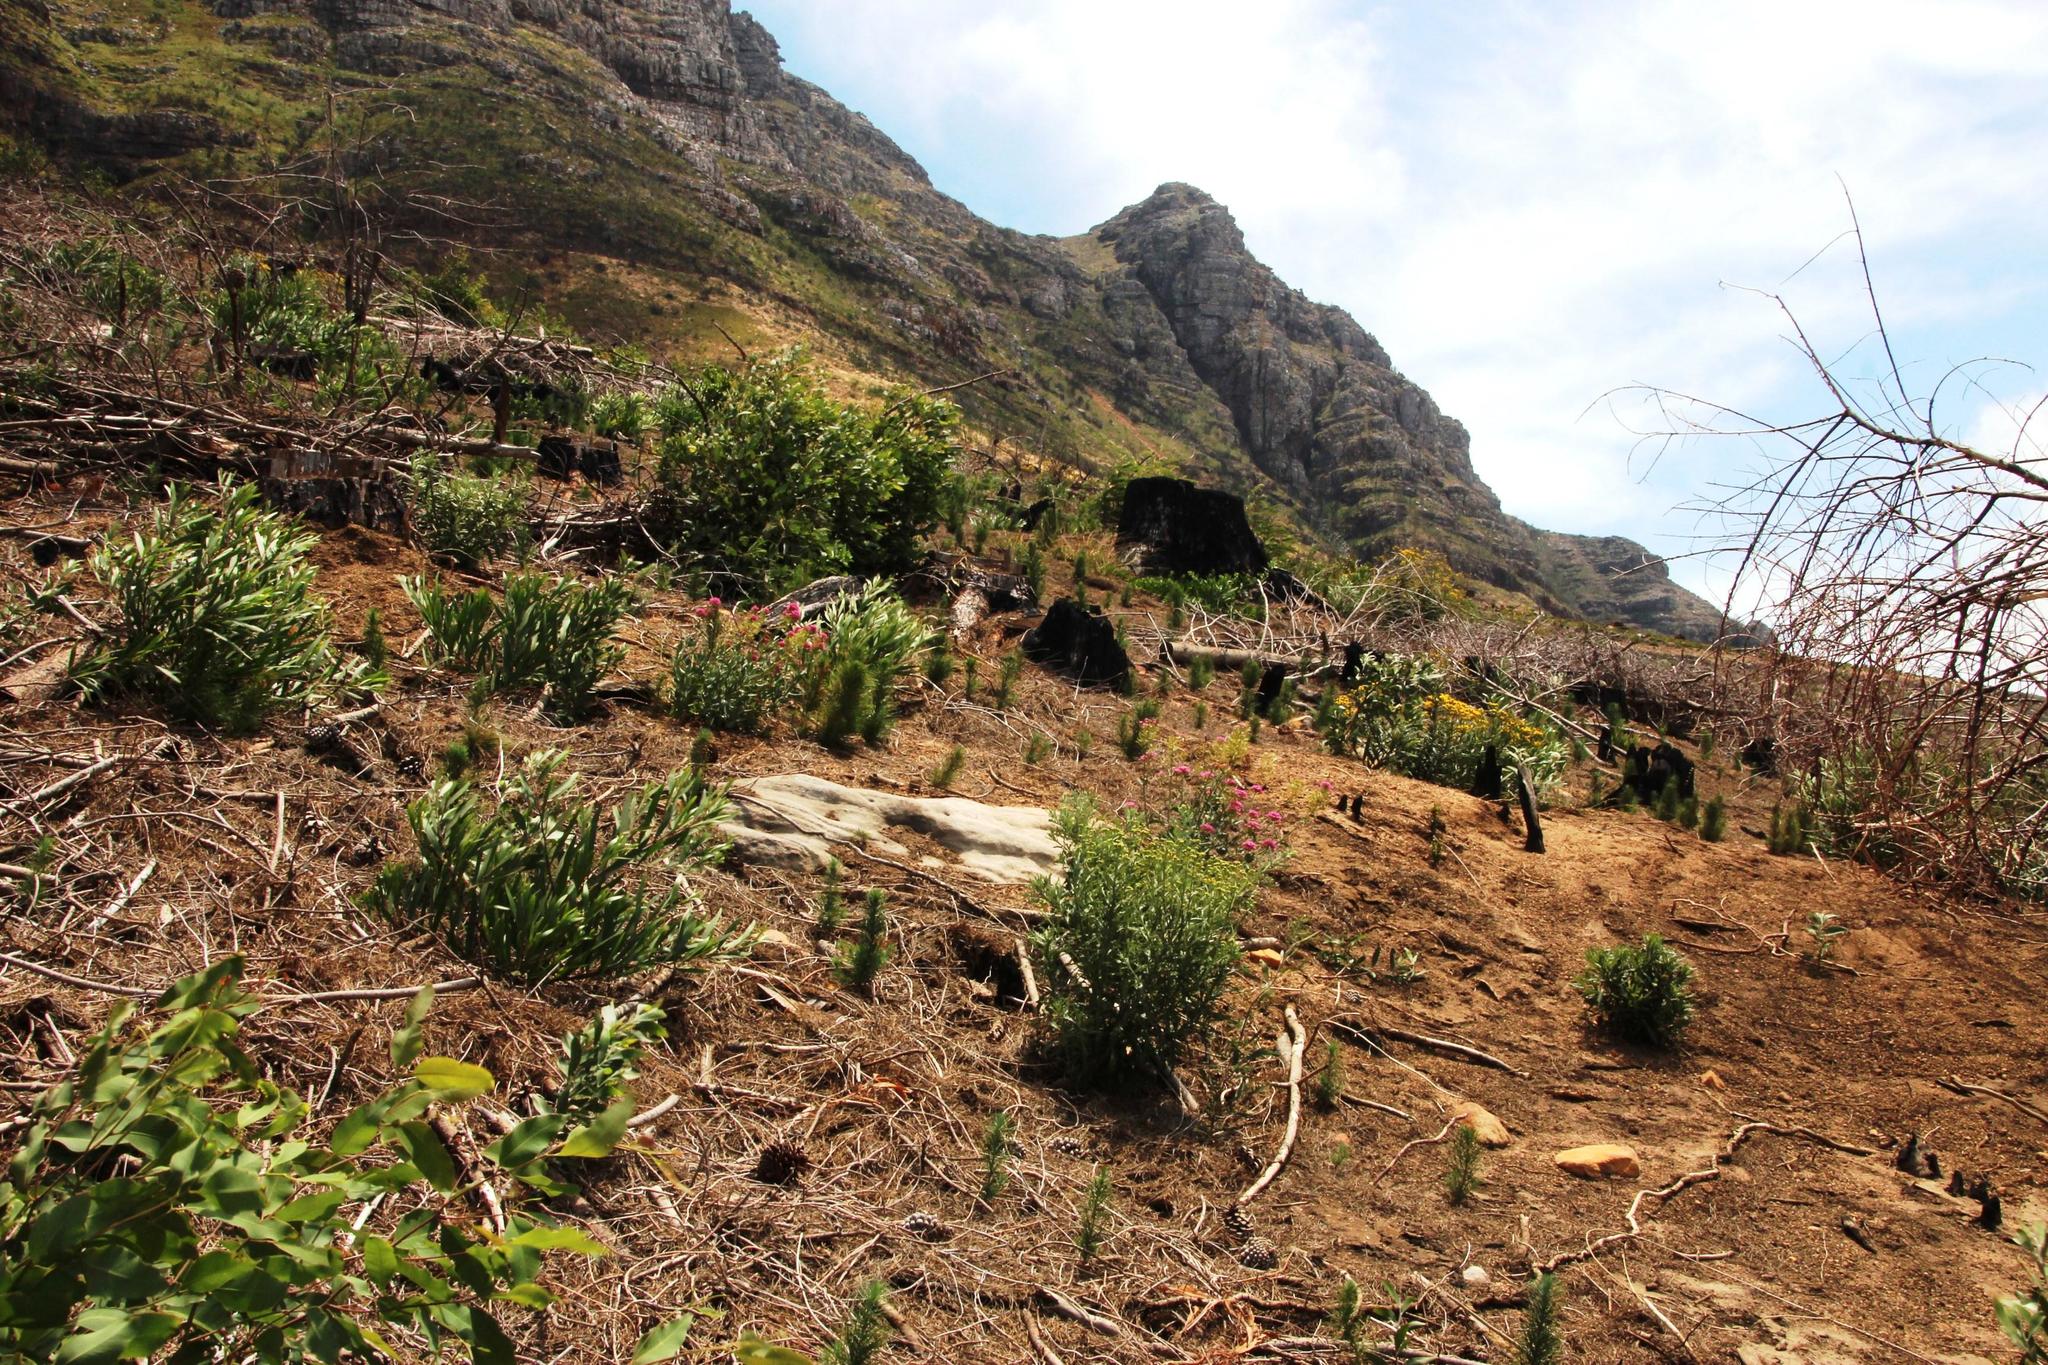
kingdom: Plantae
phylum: Tracheophyta
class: Magnoliopsida
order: Dipsacales
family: Caprifoliaceae
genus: Centranthus
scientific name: Centranthus ruber
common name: Red valerian
